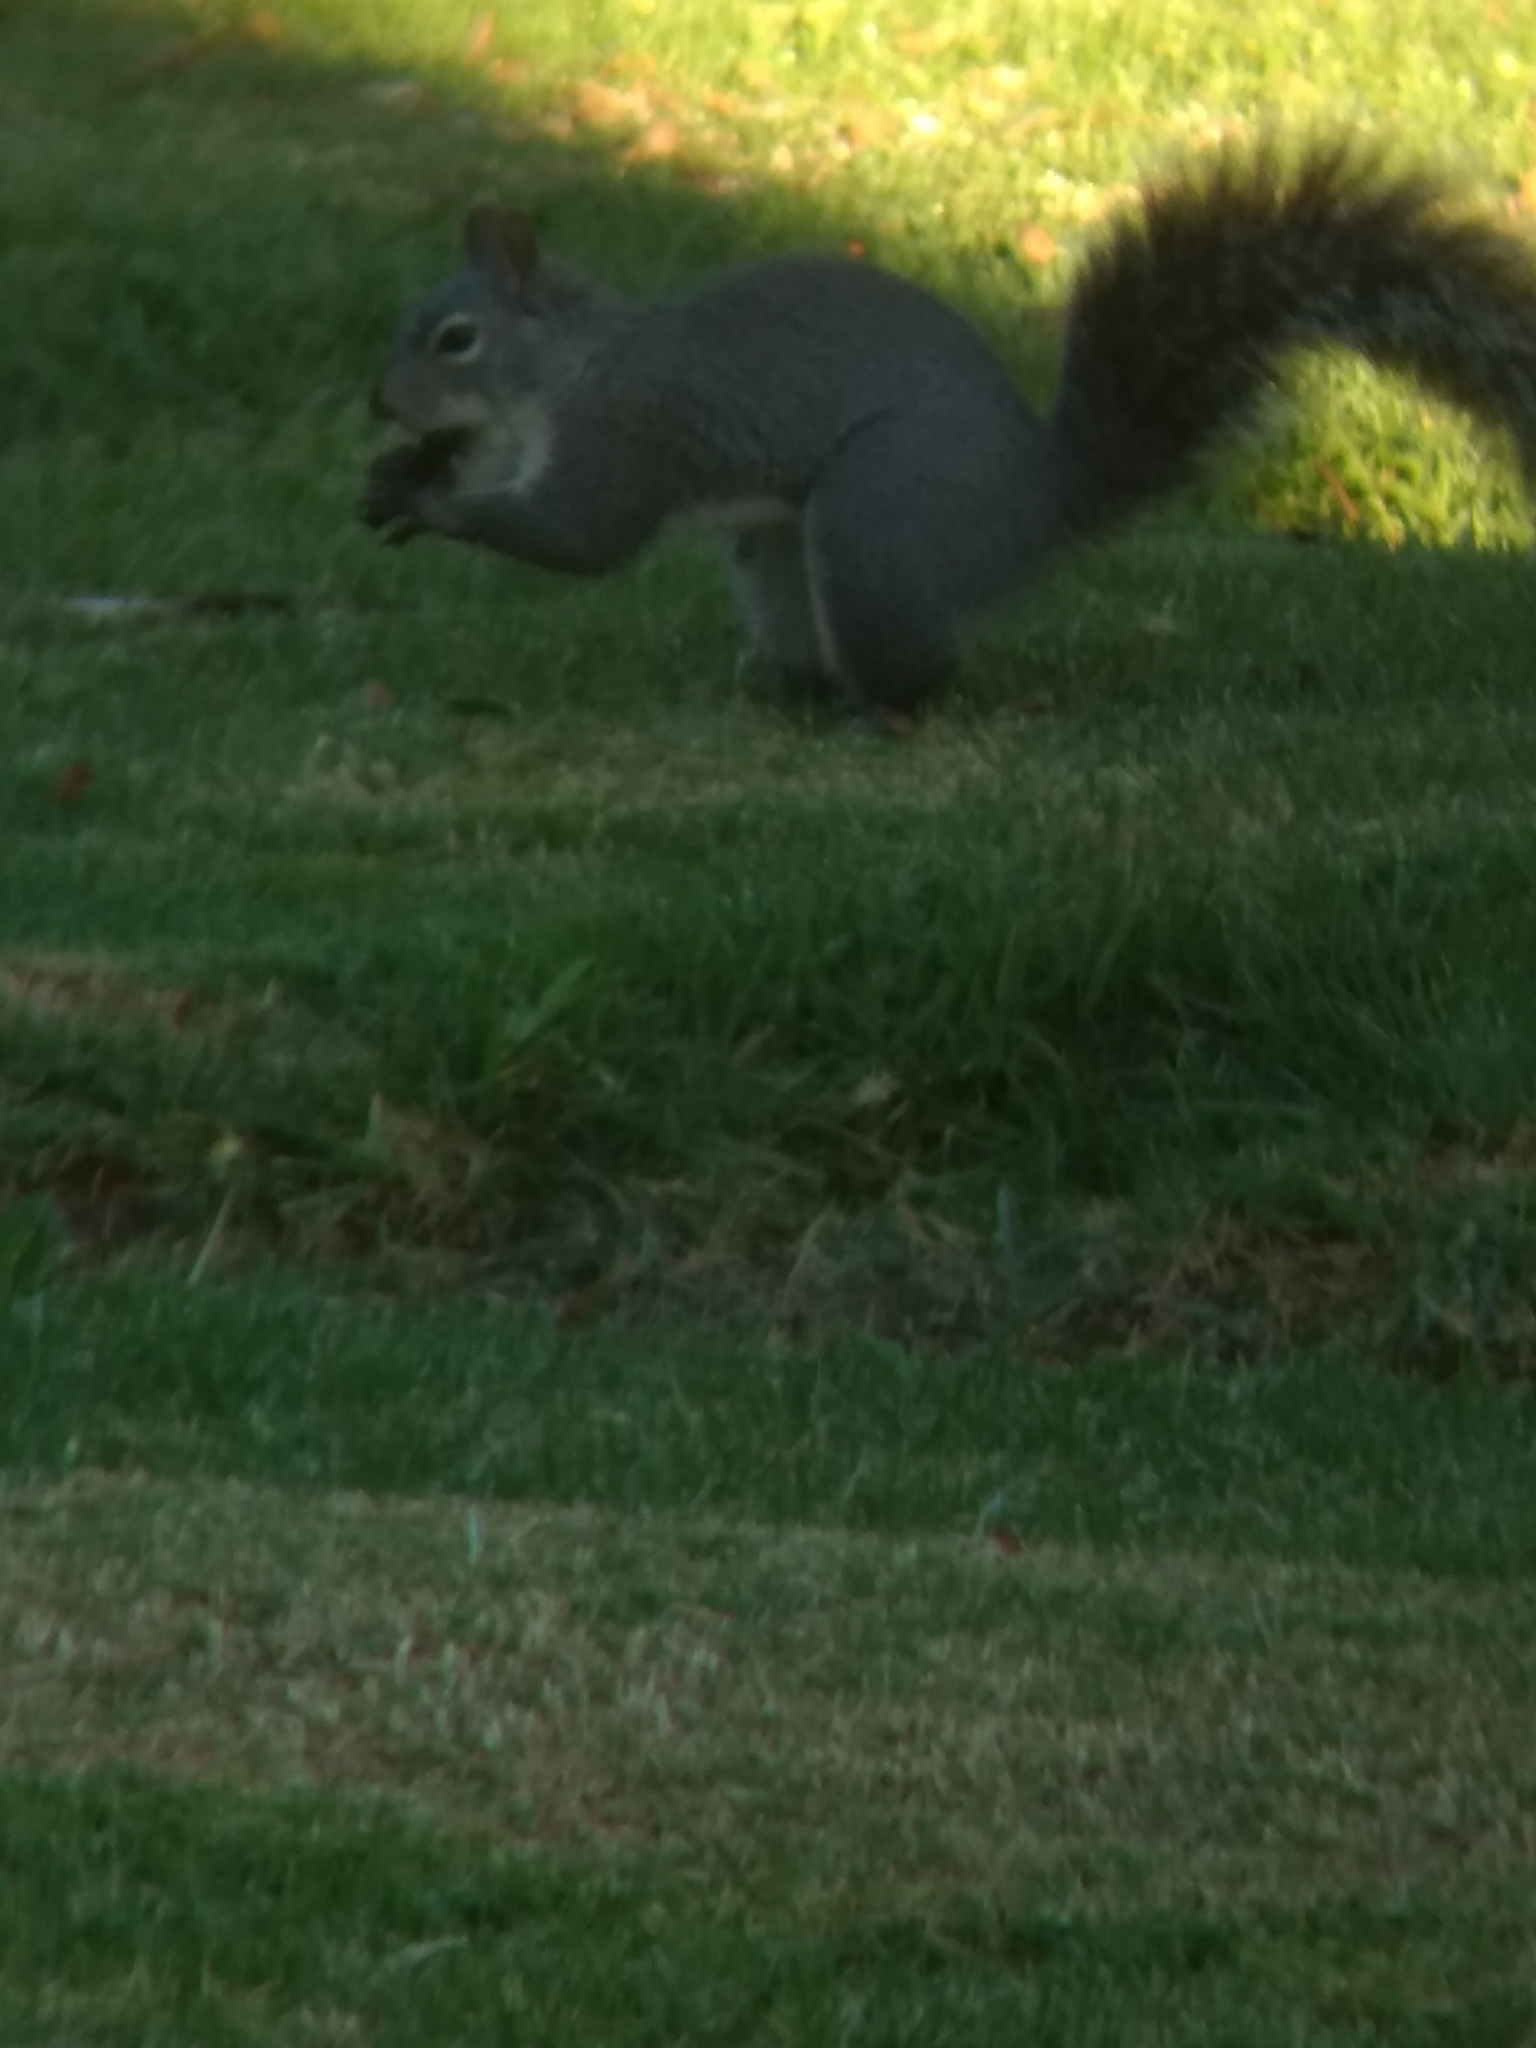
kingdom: Animalia
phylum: Chordata
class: Mammalia
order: Rodentia
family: Sciuridae
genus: Sciurus
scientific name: Sciurus griseus
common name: Western gray squirrel
